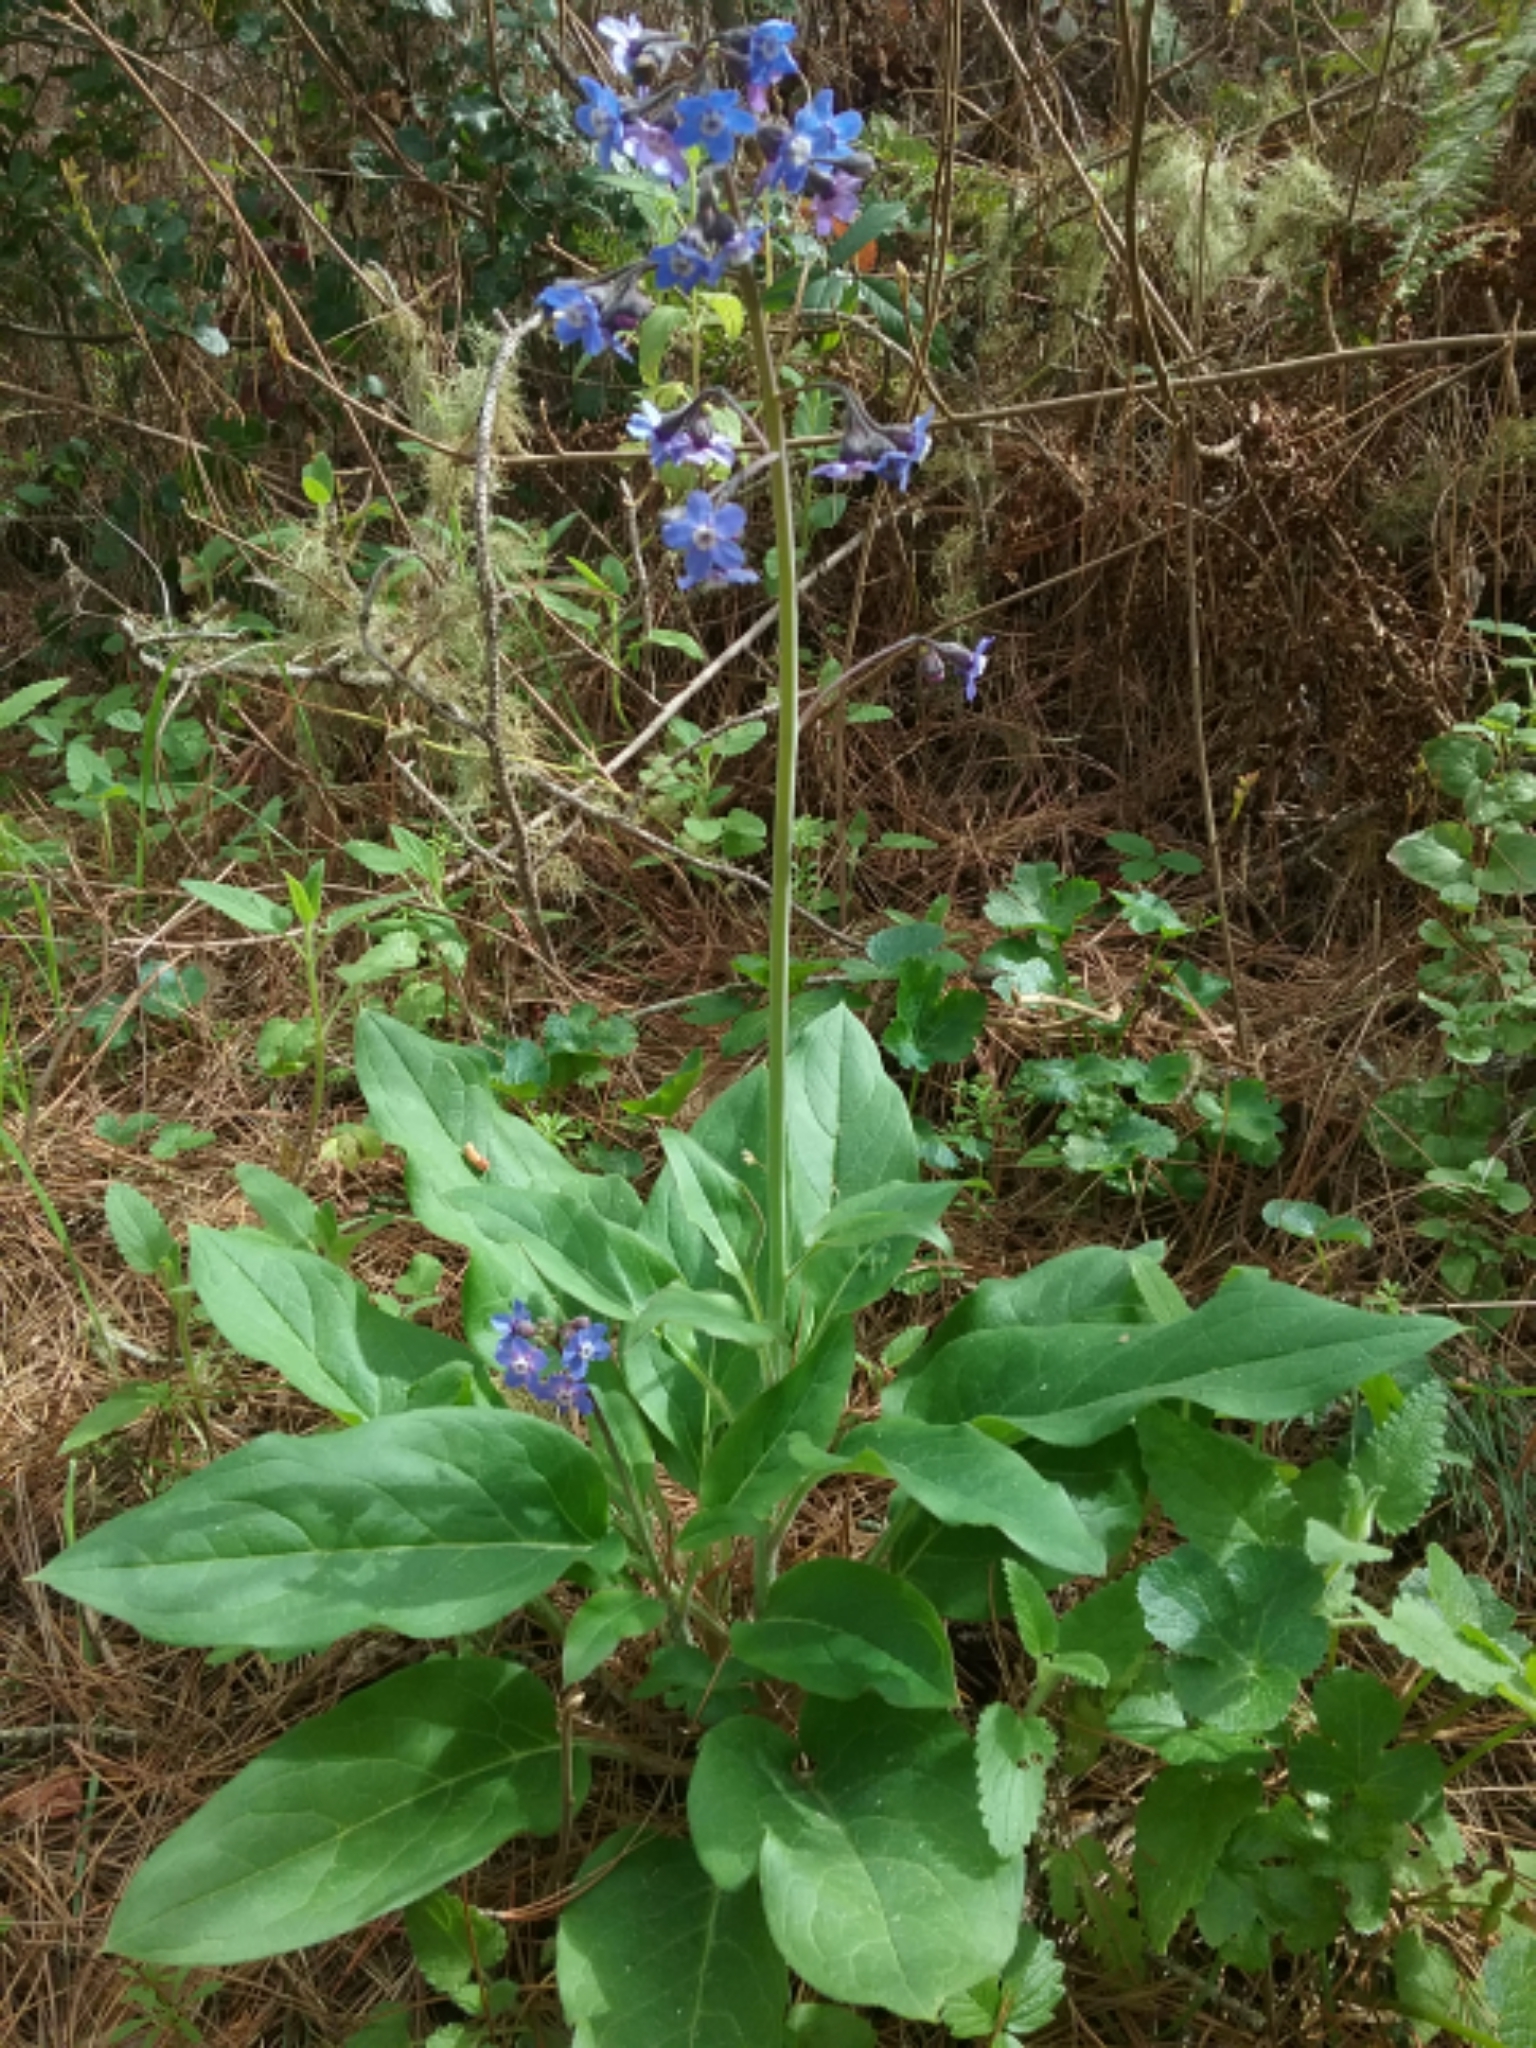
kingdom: Plantae
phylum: Tracheophyta
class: Magnoliopsida
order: Boraginales
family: Boraginaceae
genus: Adelinia
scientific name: Adelinia grande
